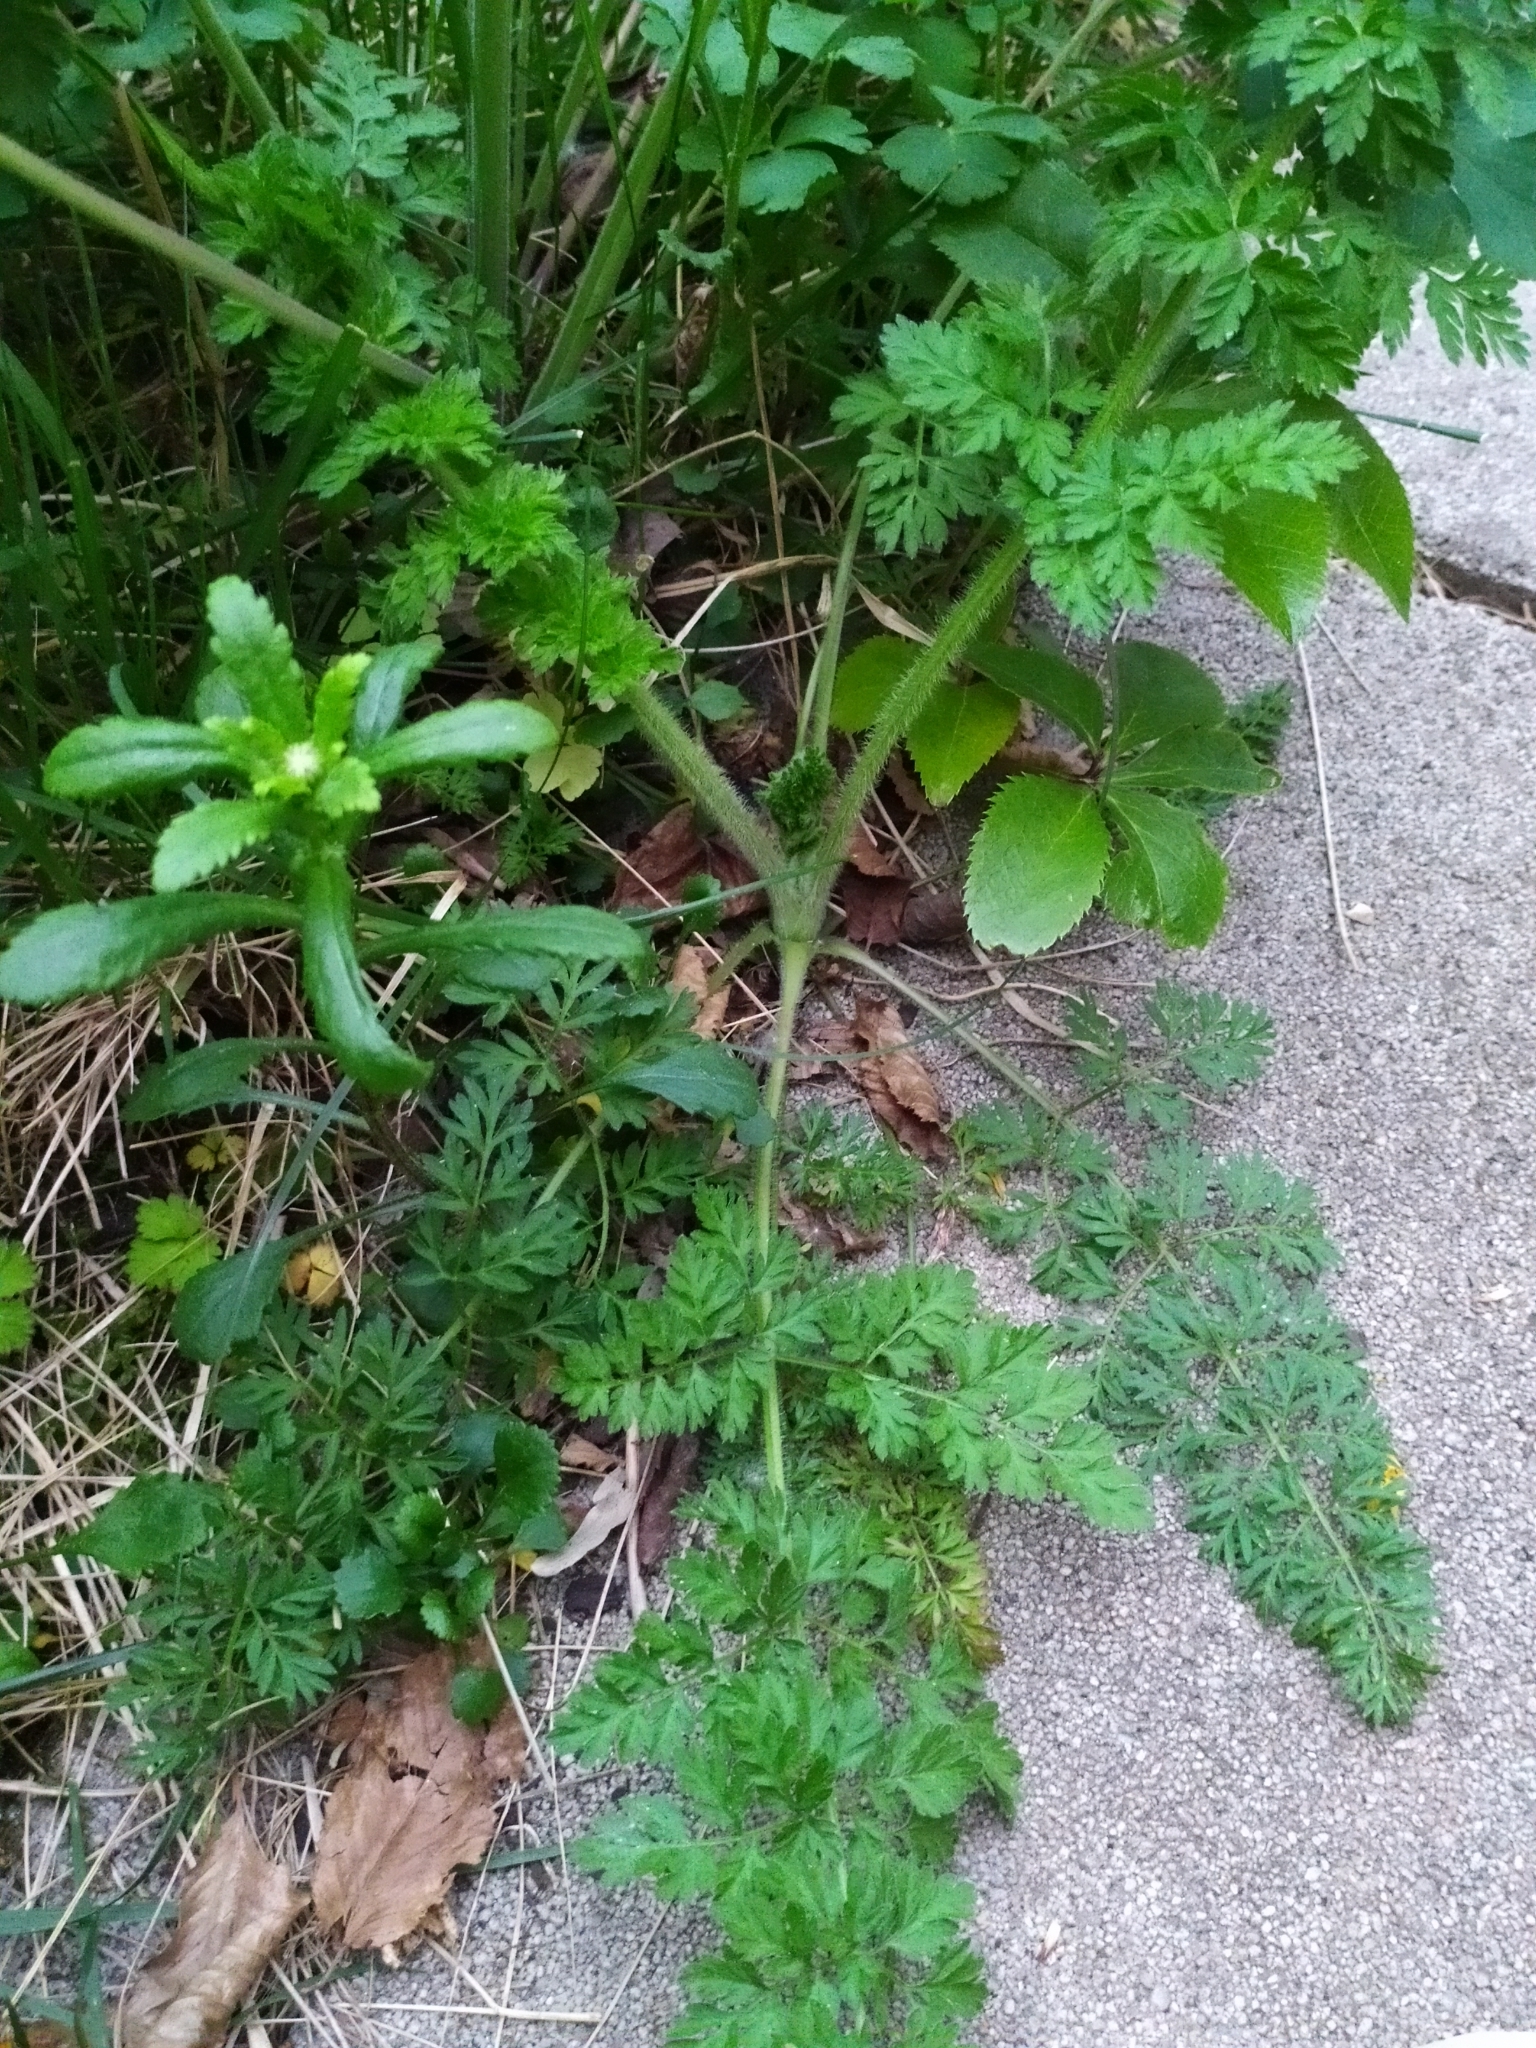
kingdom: Plantae
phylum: Tracheophyta
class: Magnoliopsida
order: Apiales
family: Apiaceae
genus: Daucus
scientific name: Daucus carota
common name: Wild carrot
